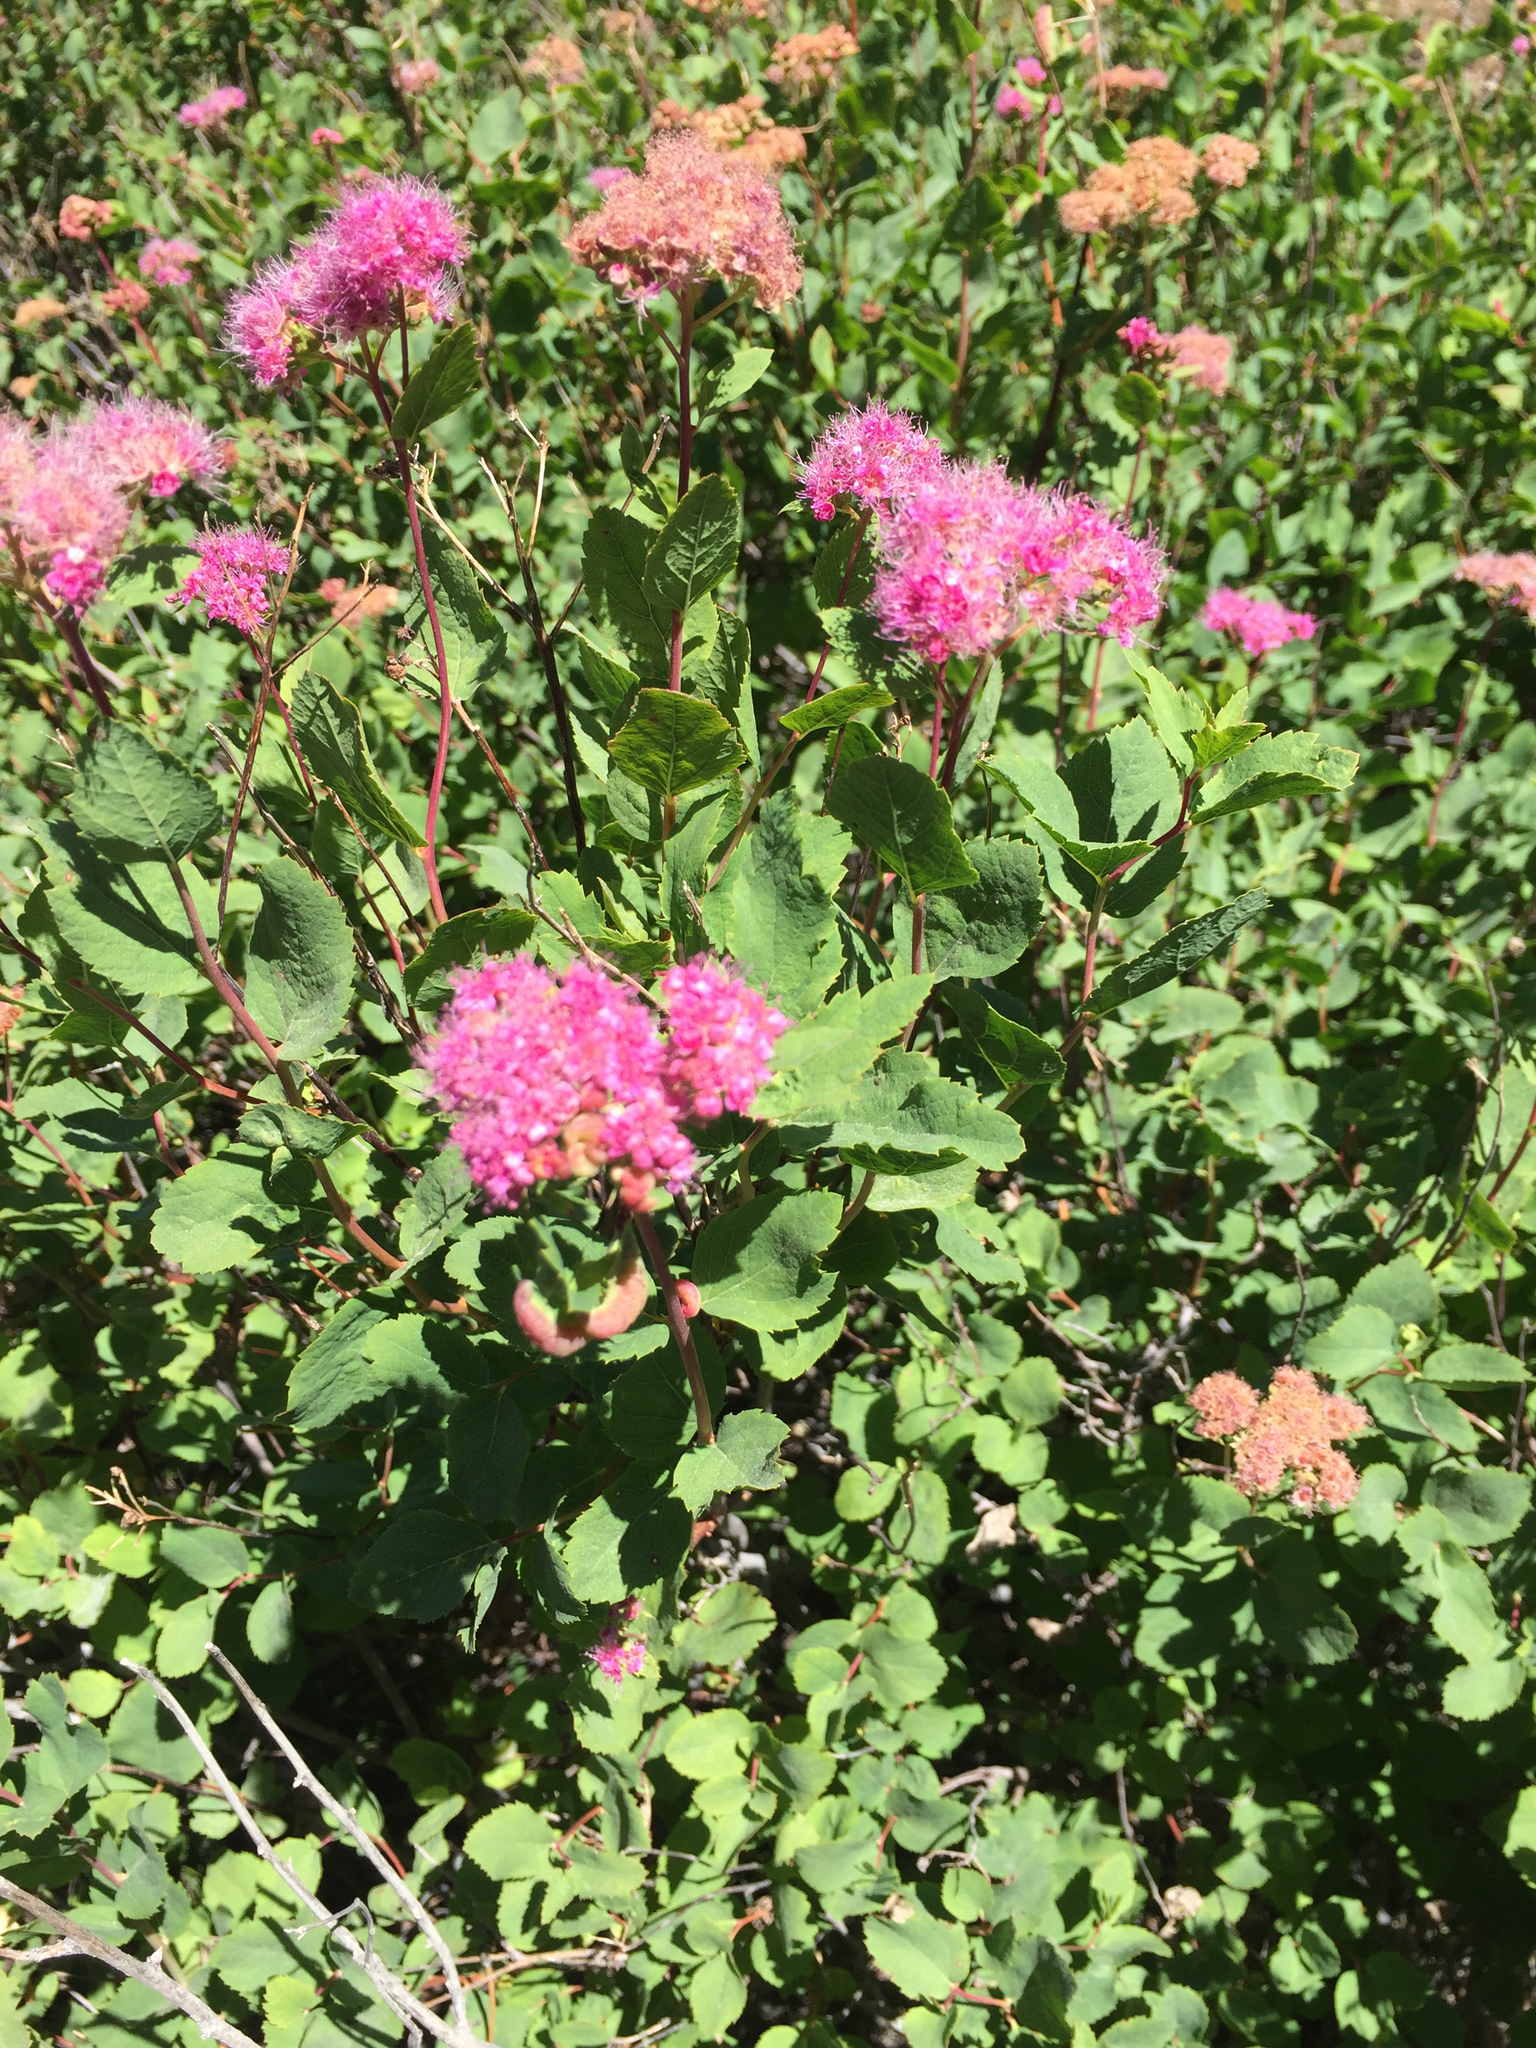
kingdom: Plantae
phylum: Tracheophyta
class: Magnoliopsida
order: Rosales
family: Rosaceae
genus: Spiraea
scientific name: Spiraea splendens
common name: Subalpine meadowsweet
